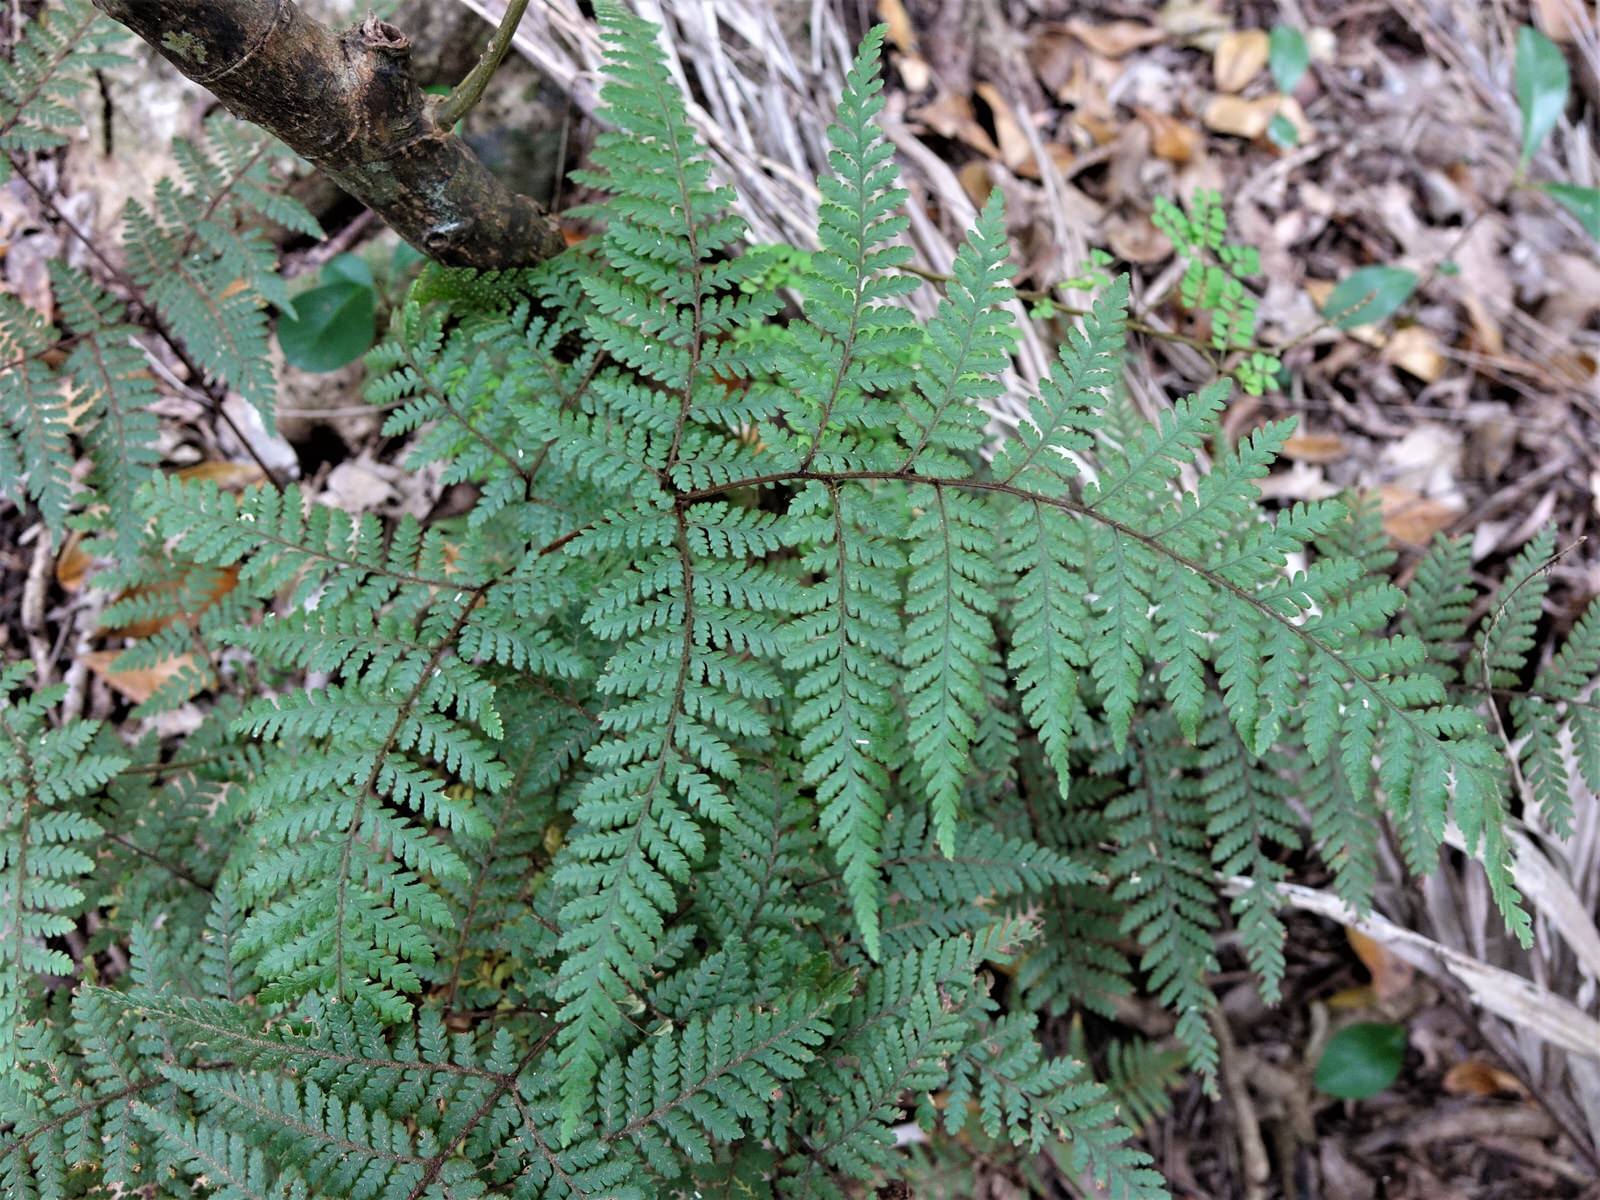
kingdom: Plantae
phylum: Tracheophyta
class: Polypodiopsida
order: Polypodiales
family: Dryopteridaceae
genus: Lastreopsis
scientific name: Lastreopsis velutina
